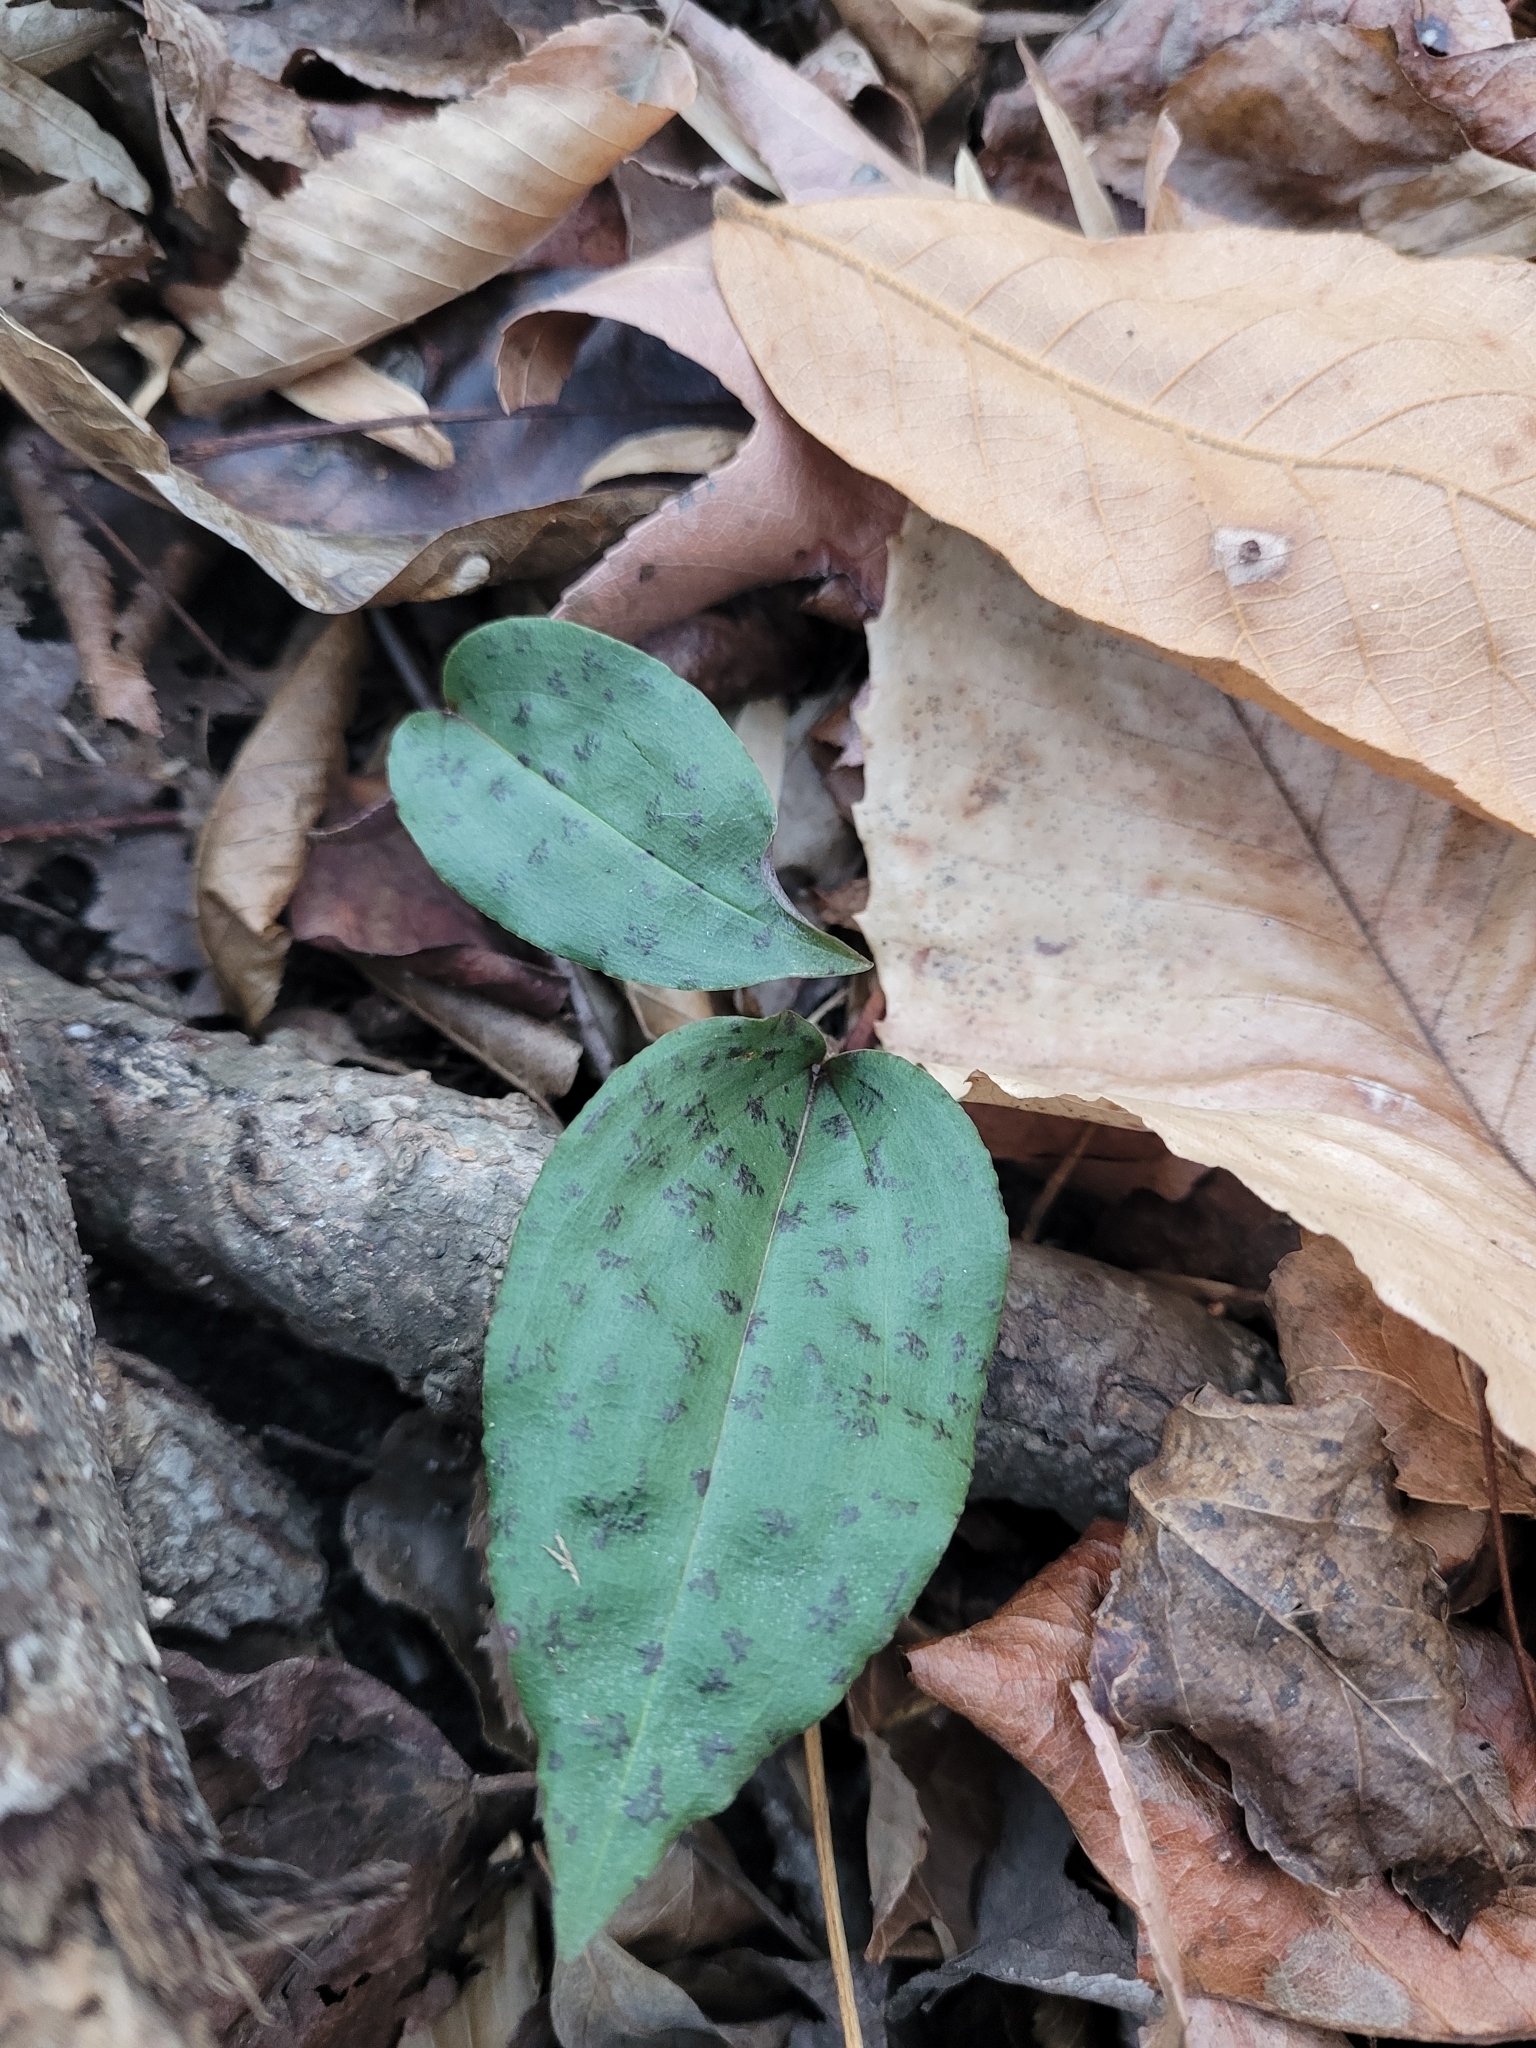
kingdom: Plantae
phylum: Tracheophyta
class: Liliopsida
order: Asparagales
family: Orchidaceae
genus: Tipularia
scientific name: Tipularia discolor
